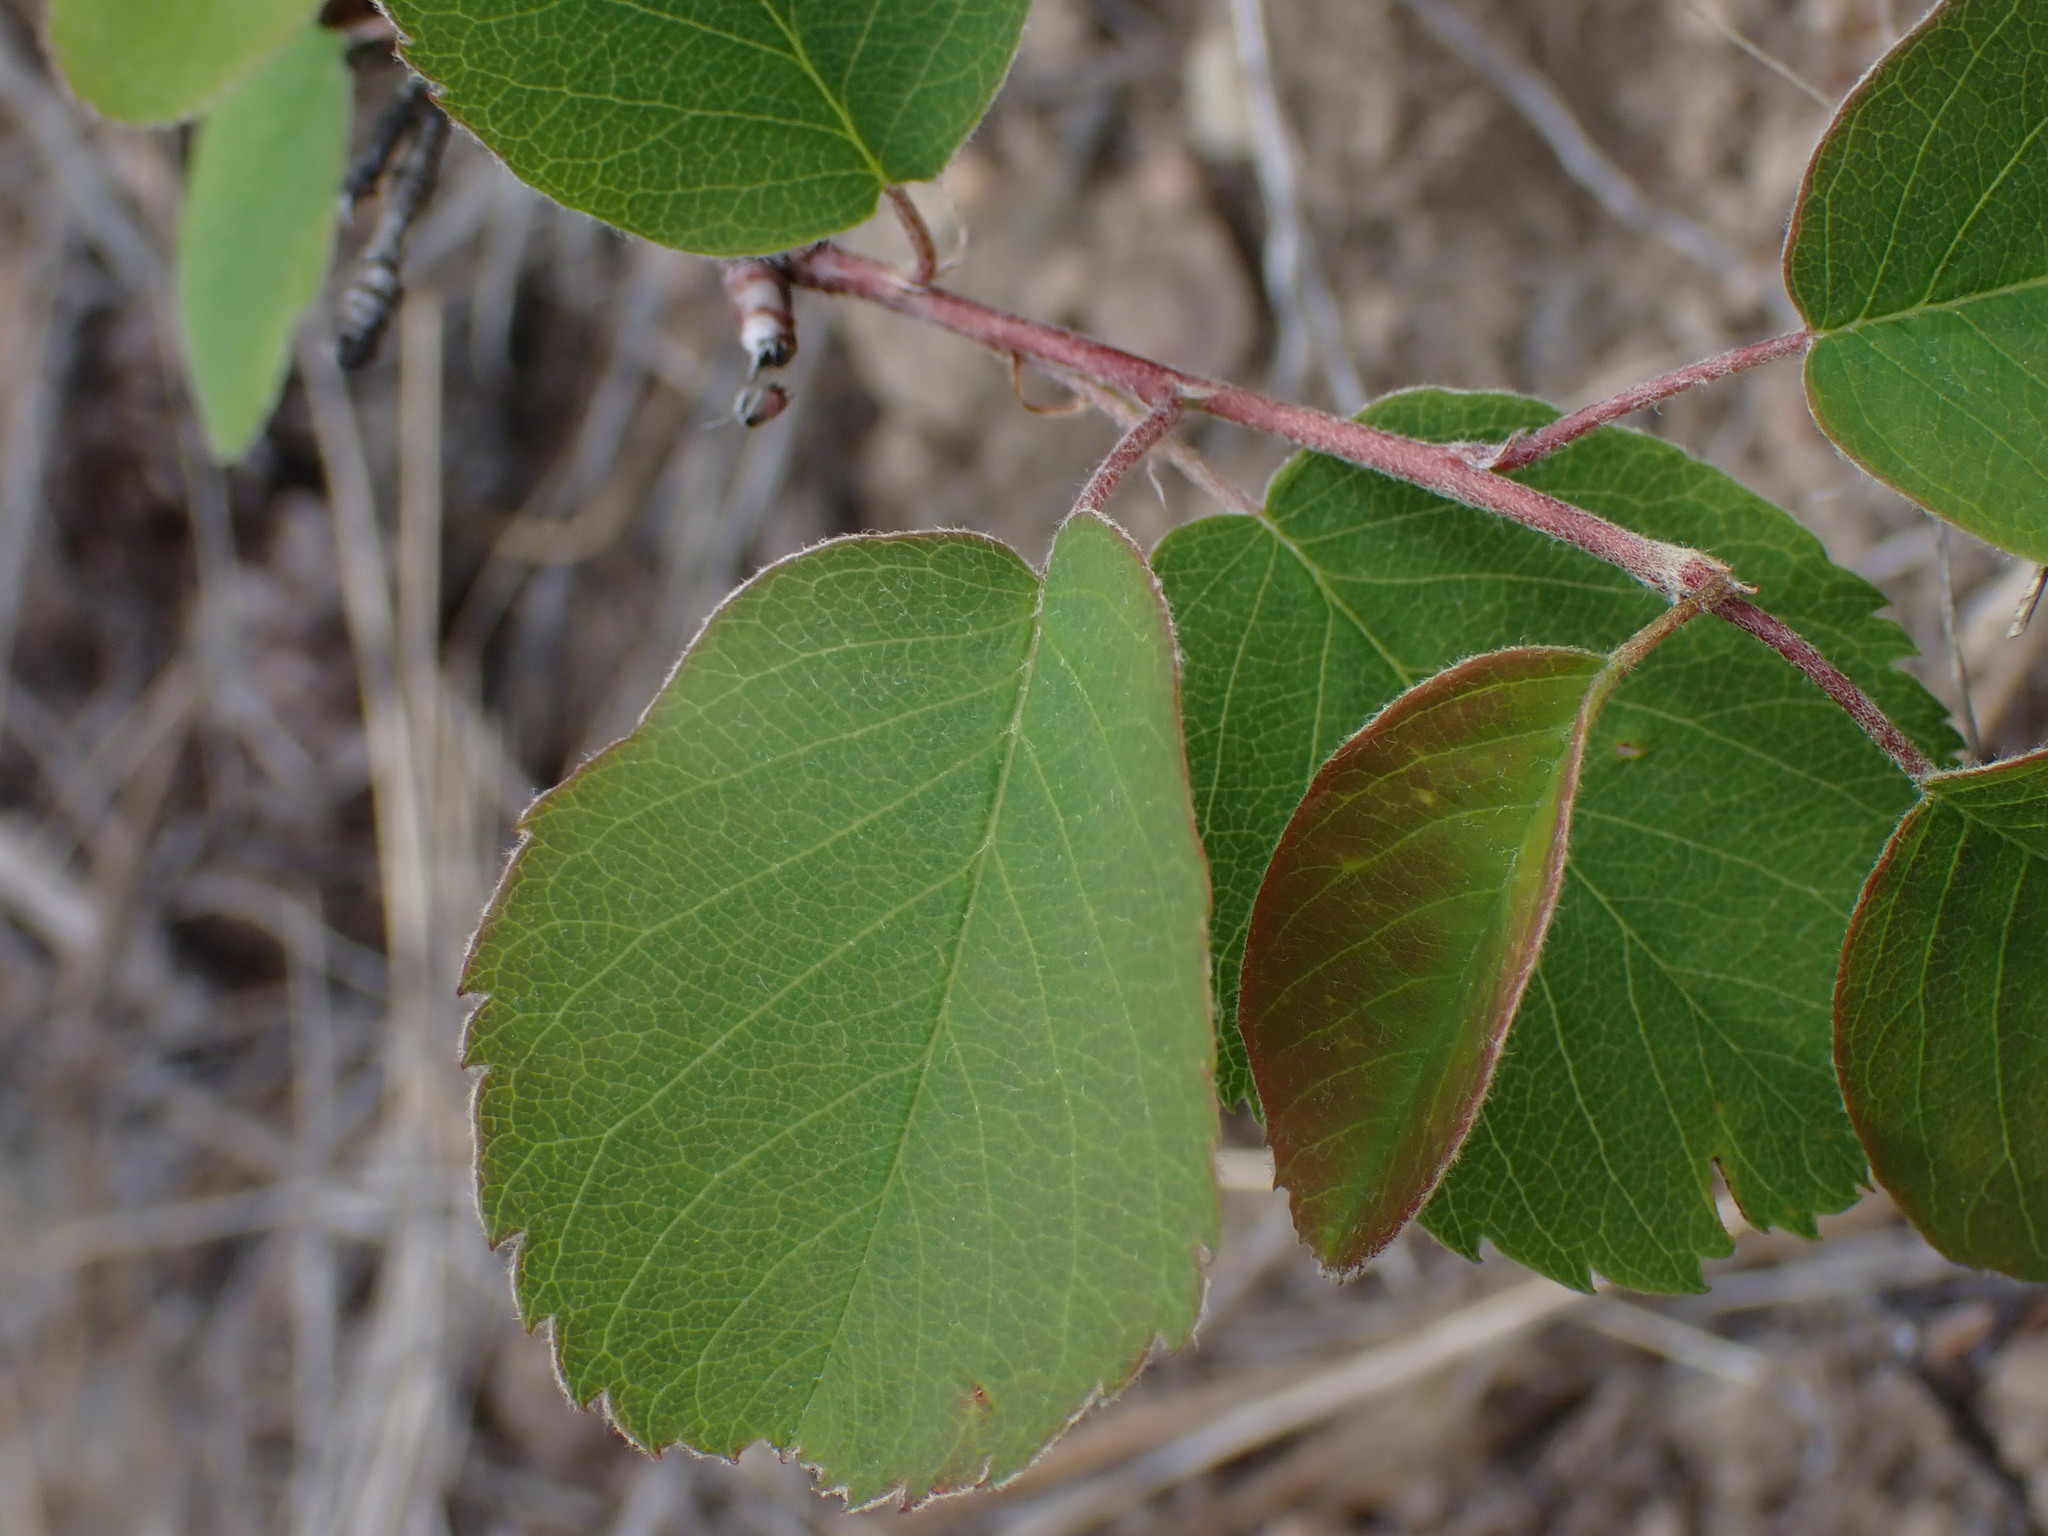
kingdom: Plantae
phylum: Tracheophyta
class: Magnoliopsida
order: Rosales
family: Rosaceae
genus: Amelanchier
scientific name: Amelanchier alnifolia
